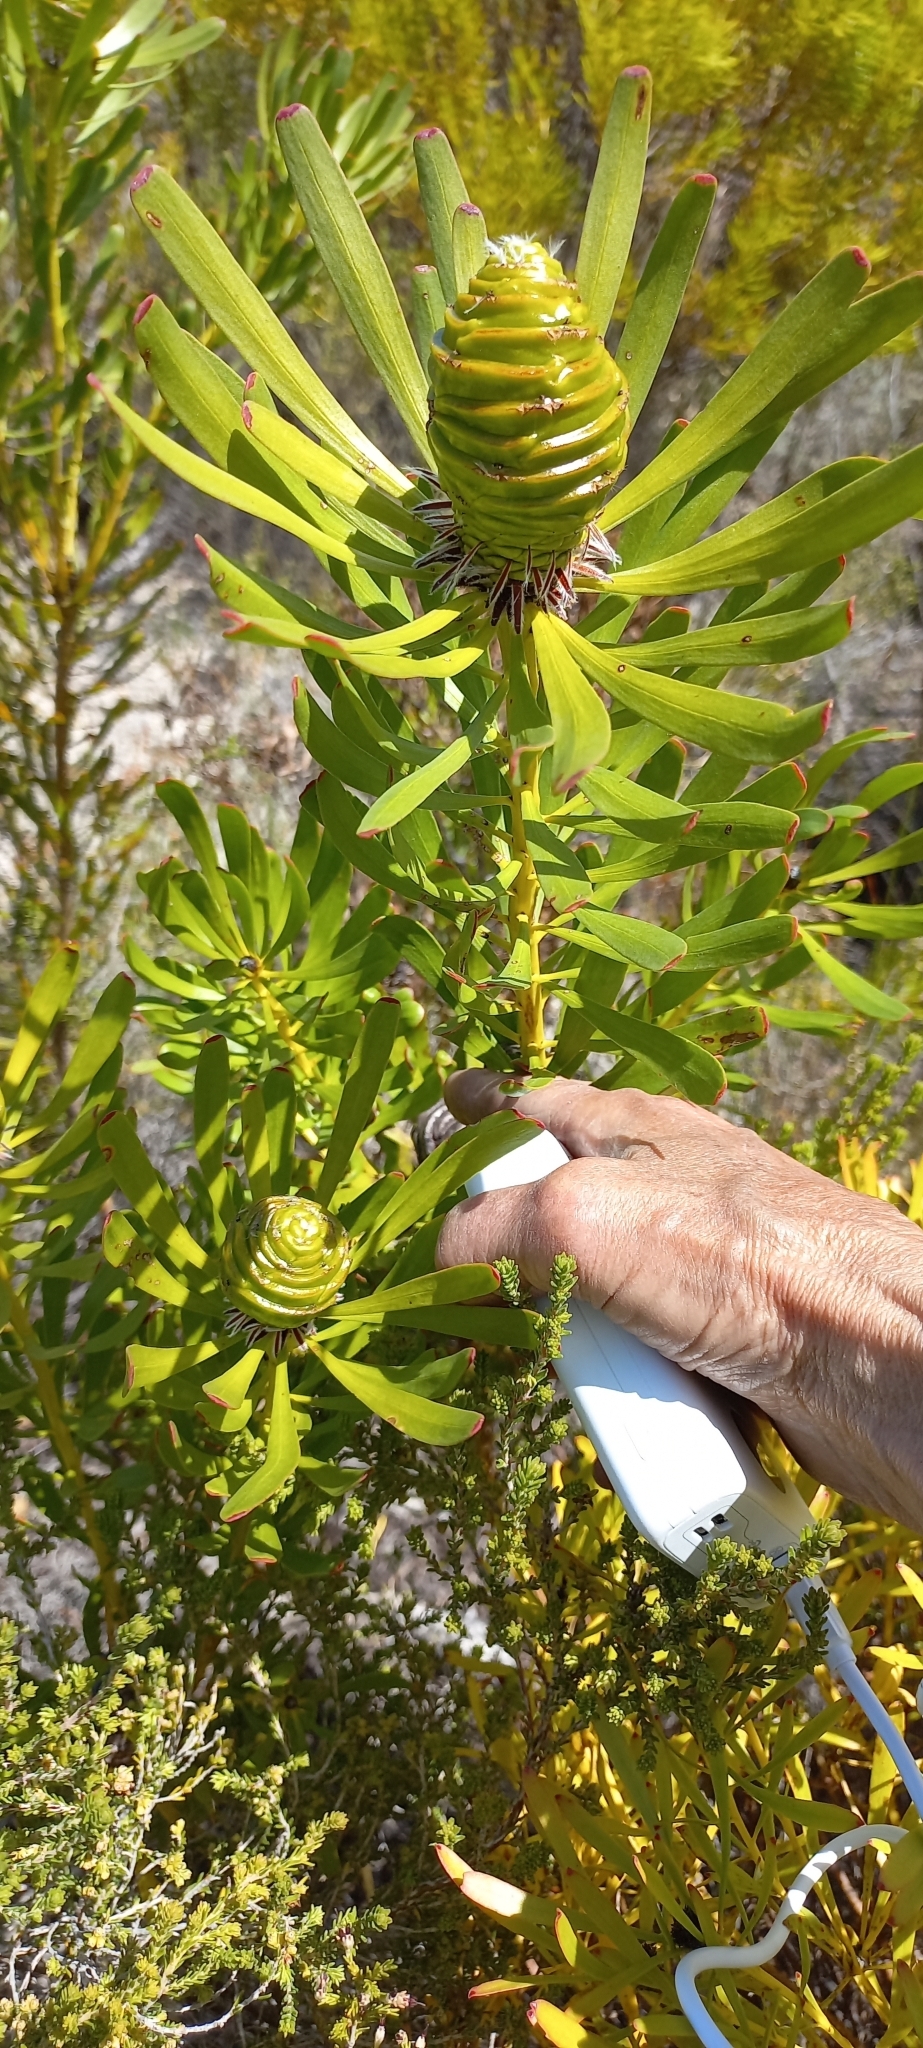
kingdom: Plantae
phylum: Tracheophyta
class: Magnoliopsida
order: Proteales
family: Proteaceae
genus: Leucadendron
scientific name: Leucadendron platyspermum
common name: Plate-seed conebush
